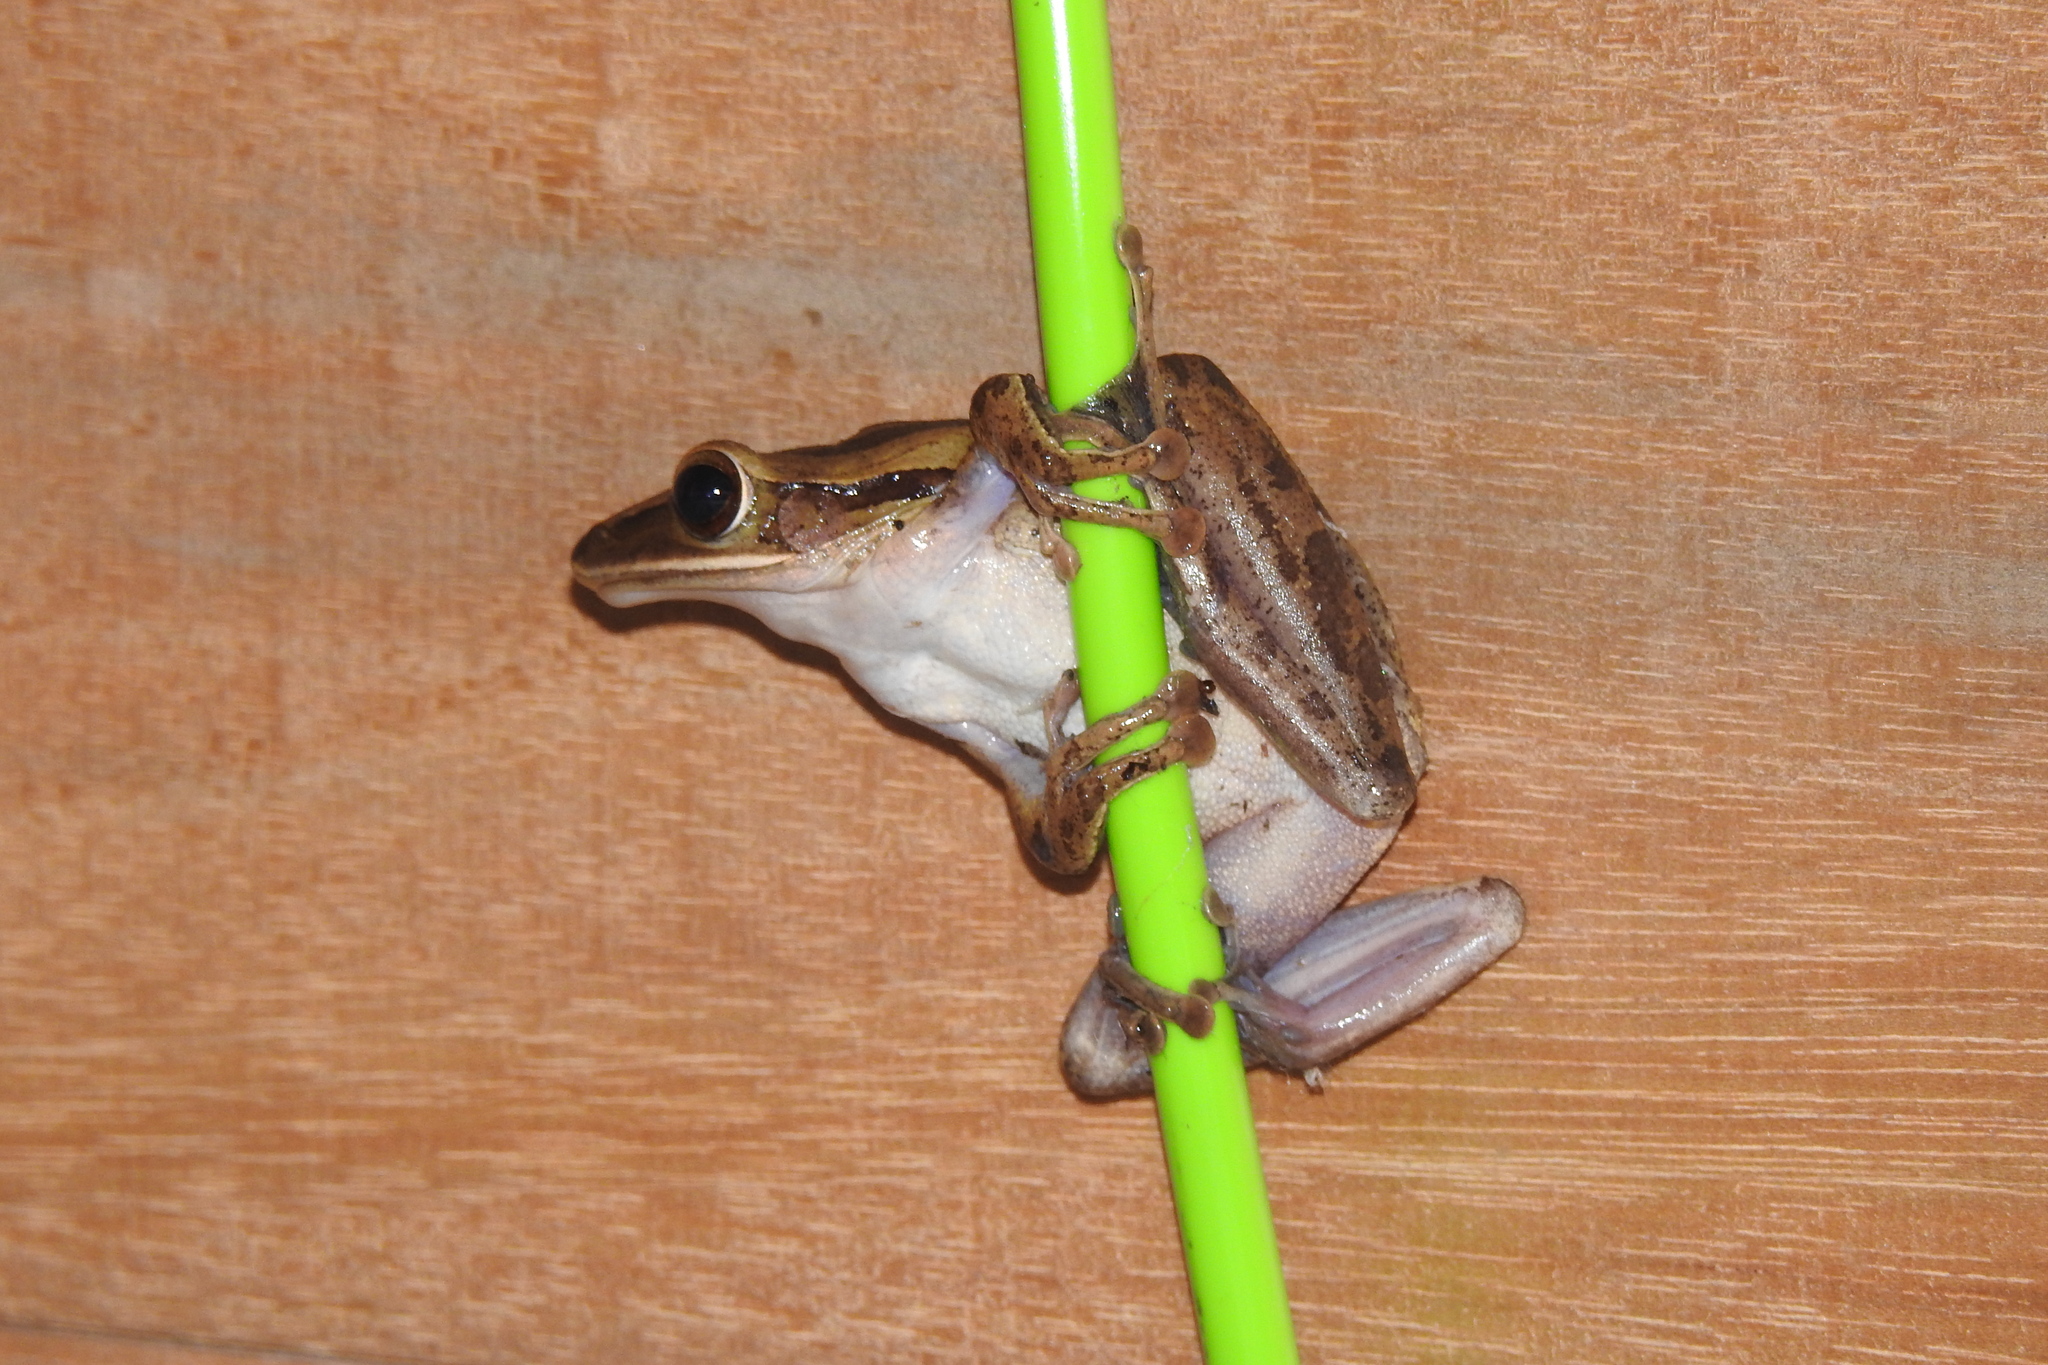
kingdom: Animalia
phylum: Chordata
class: Amphibia
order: Anura
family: Rhacophoridae
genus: Polypedates
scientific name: Polypedates leucomystax
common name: Common tree frog/four-lined tree frog
